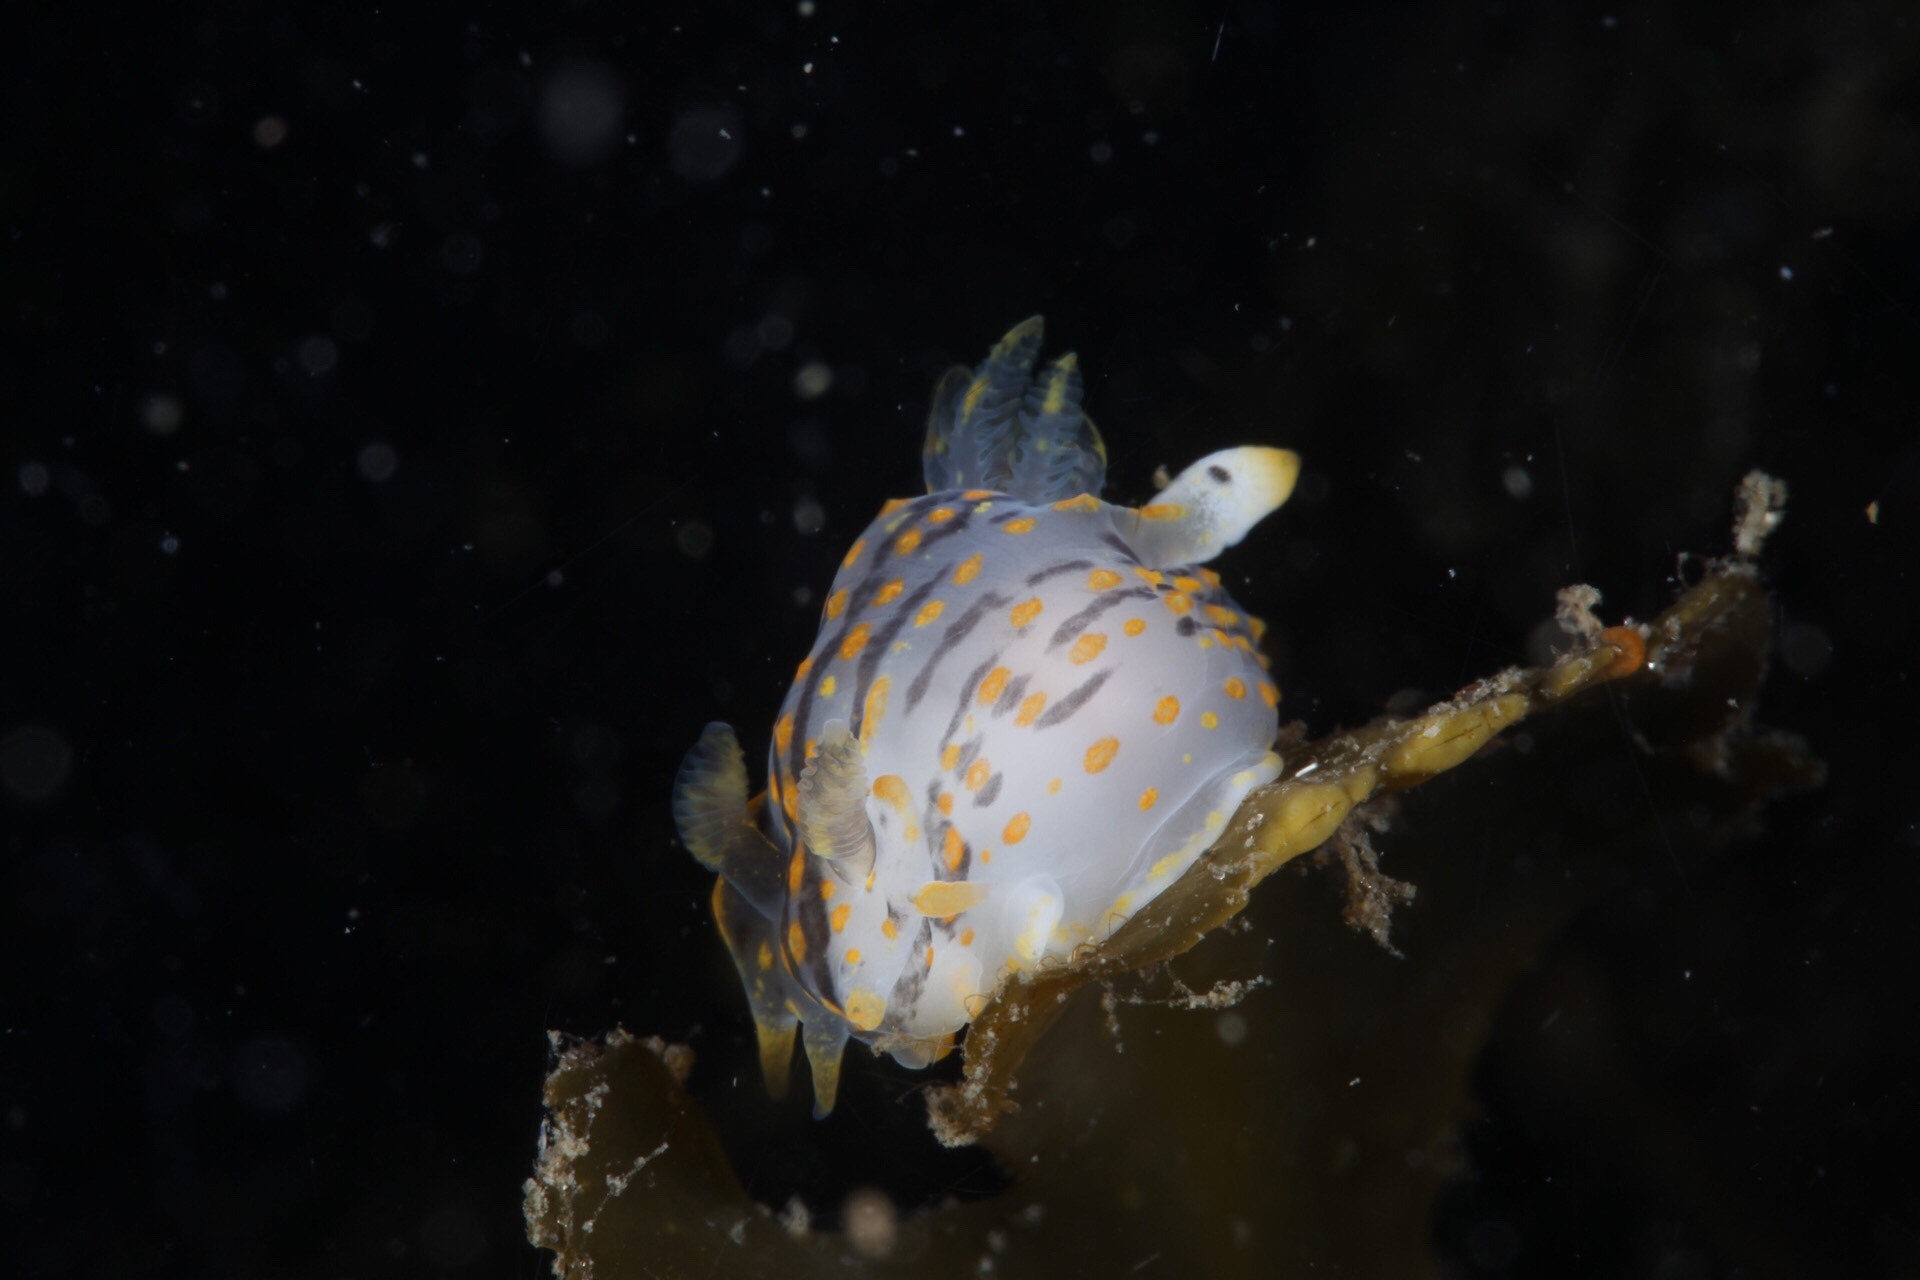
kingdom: Animalia
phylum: Mollusca
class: Gastropoda
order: Nudibranchia
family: Polyceridae
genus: Polycera
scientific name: Polycera quadrilineata
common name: Four-striped polycera
